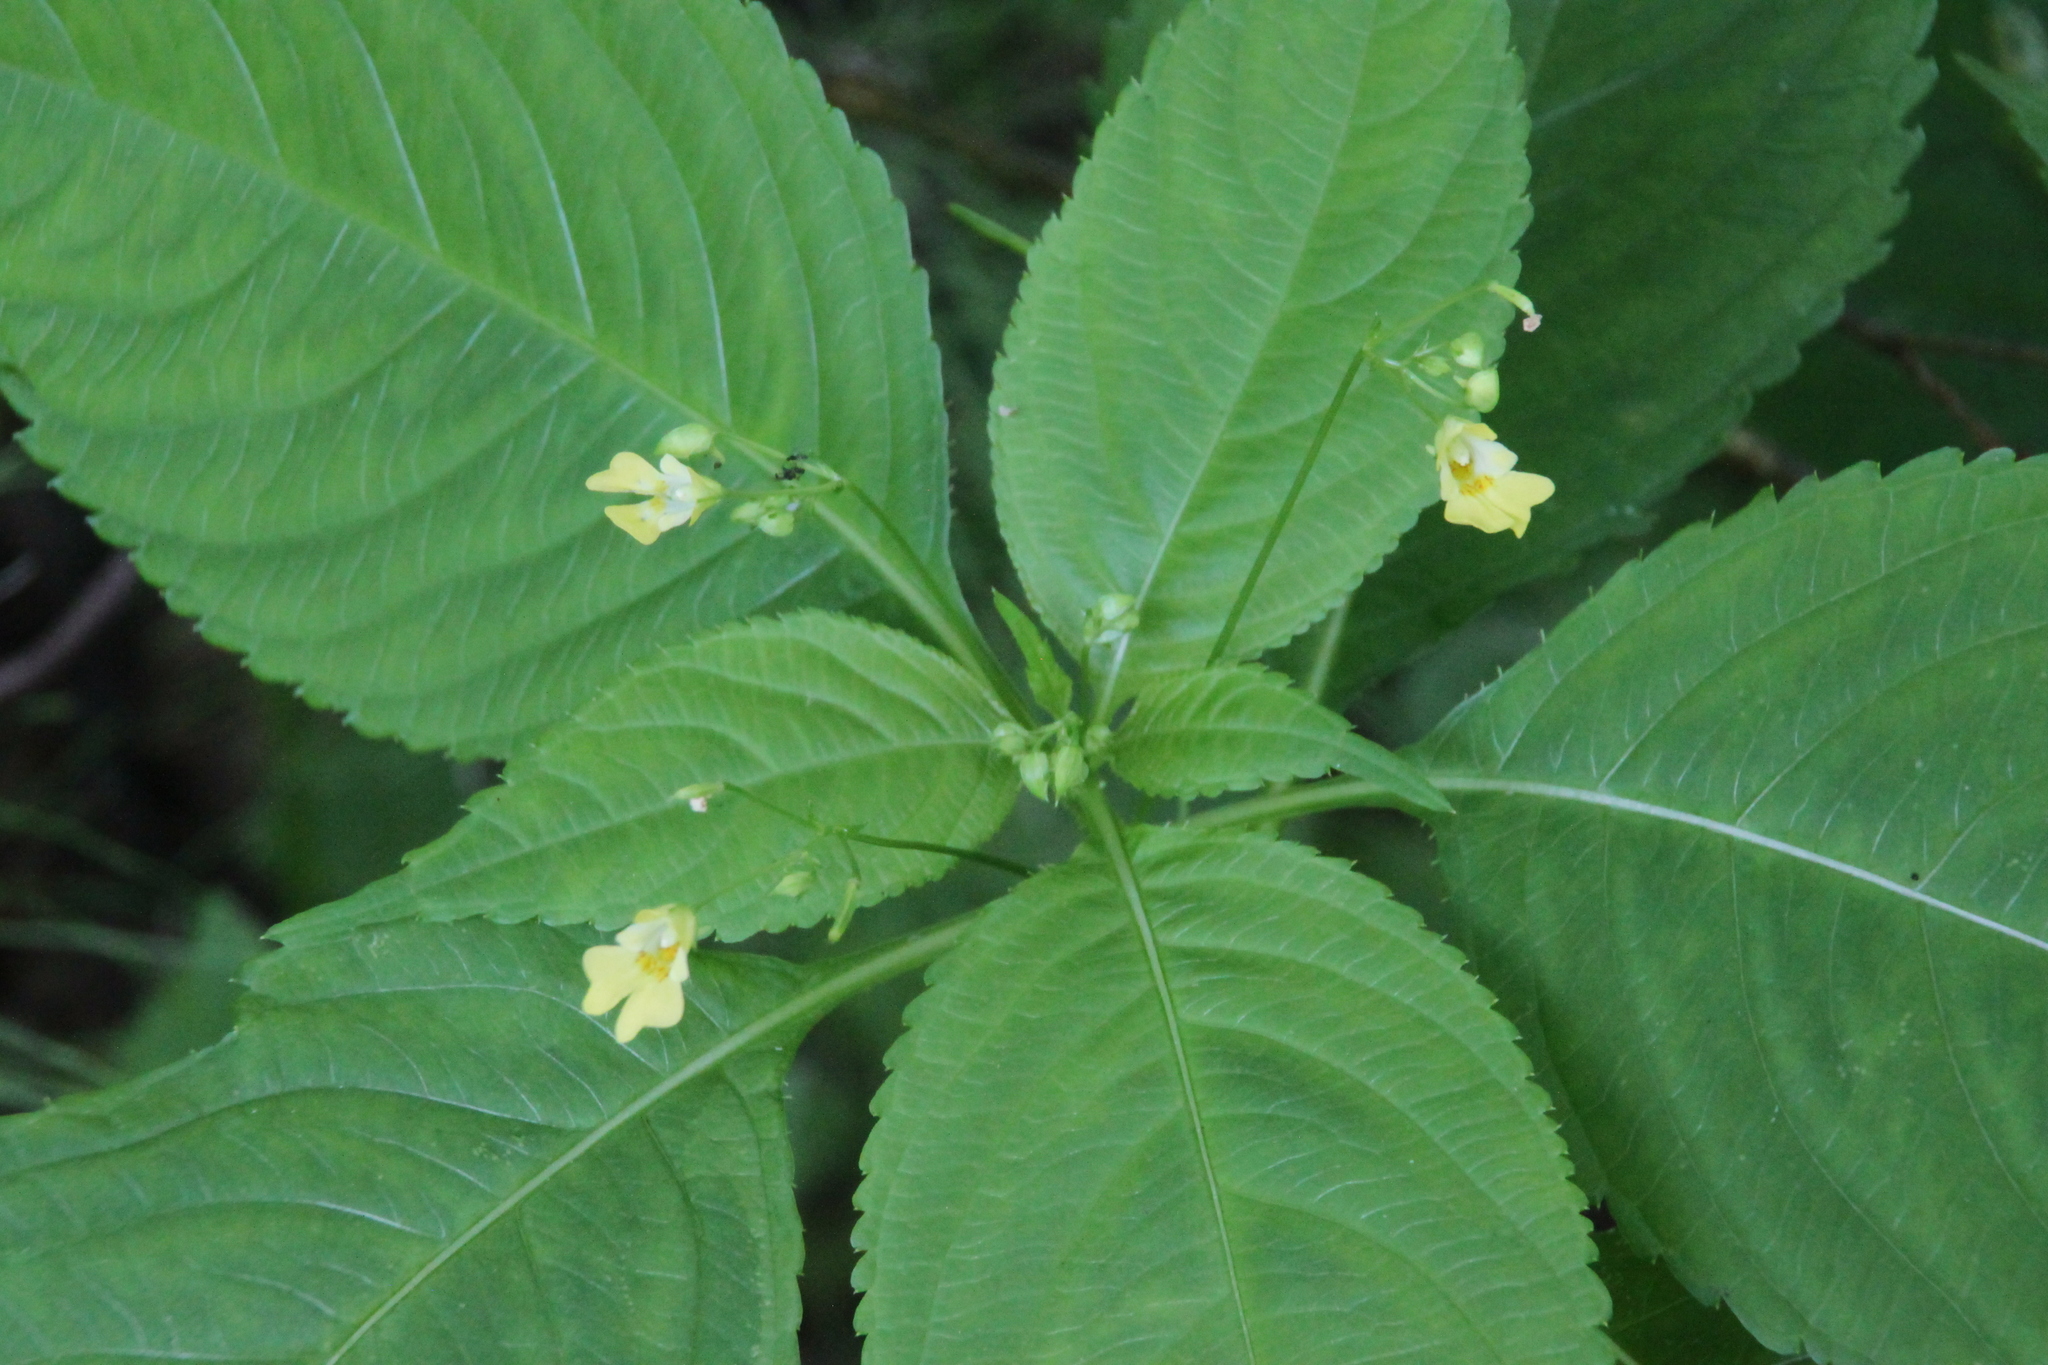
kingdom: Plantae
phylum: Tracheophyta
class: Magnoliopsida
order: Ericales
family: Balsaminaceae
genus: Impatiens
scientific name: Impatiens parviflora
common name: Small balsam
